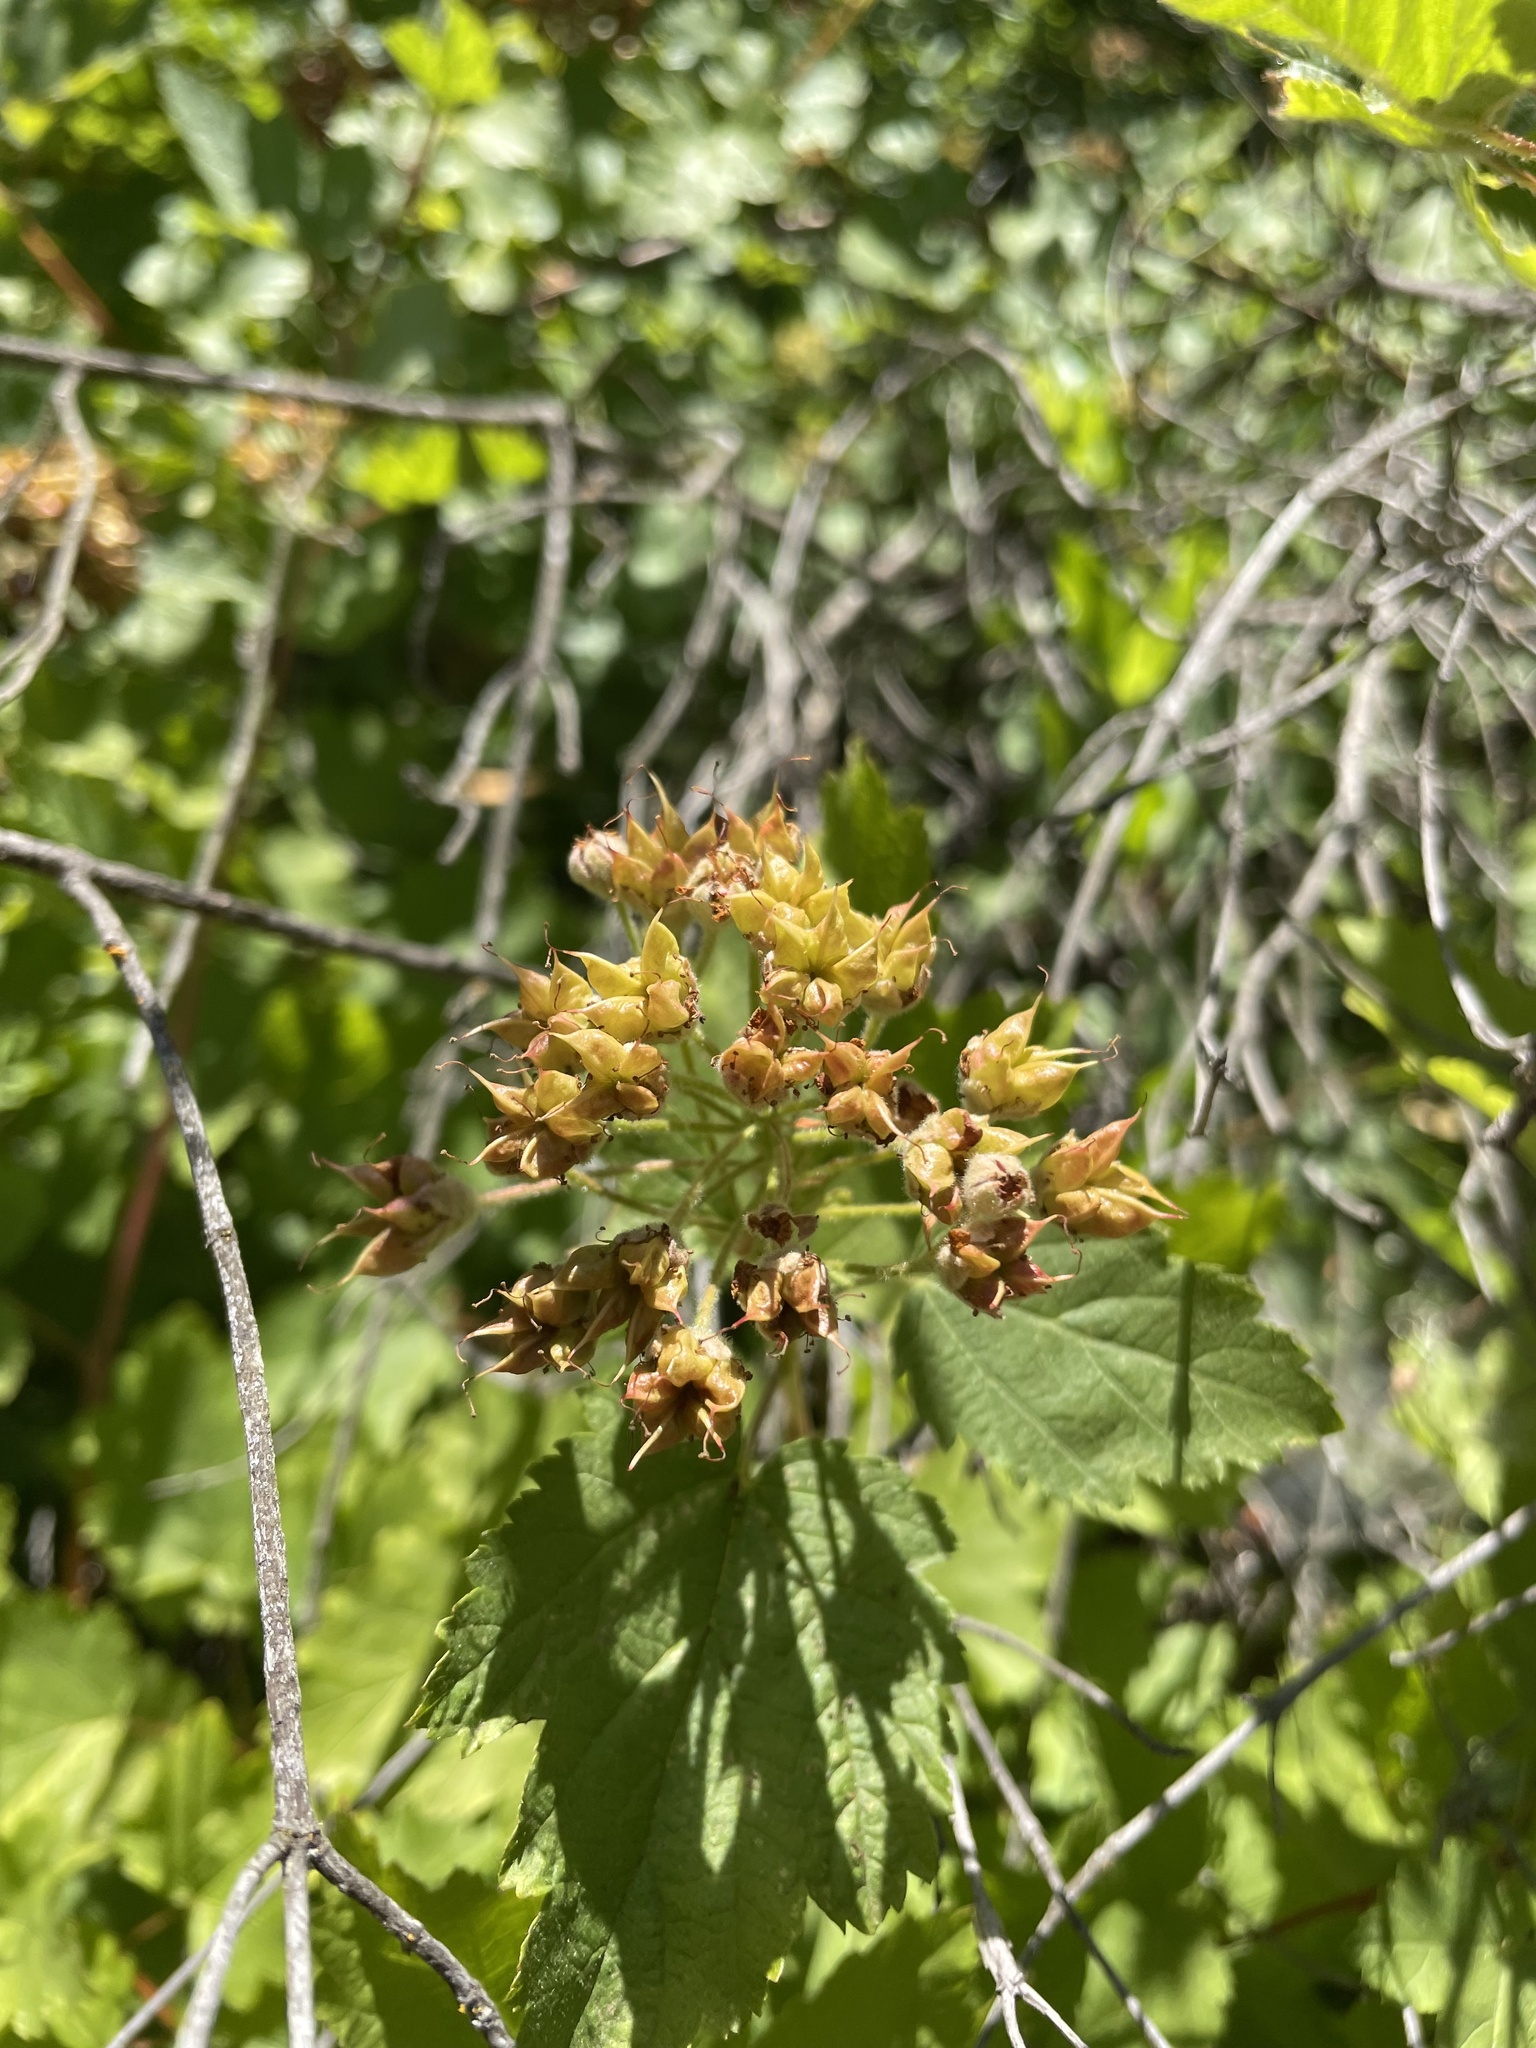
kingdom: Plantae
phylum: Tracheophyta
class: Magnoliopsida
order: Rosales
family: Rosaceae
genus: Physocarpus
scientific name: Physocarpus capitatus
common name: Pacific ninebark
